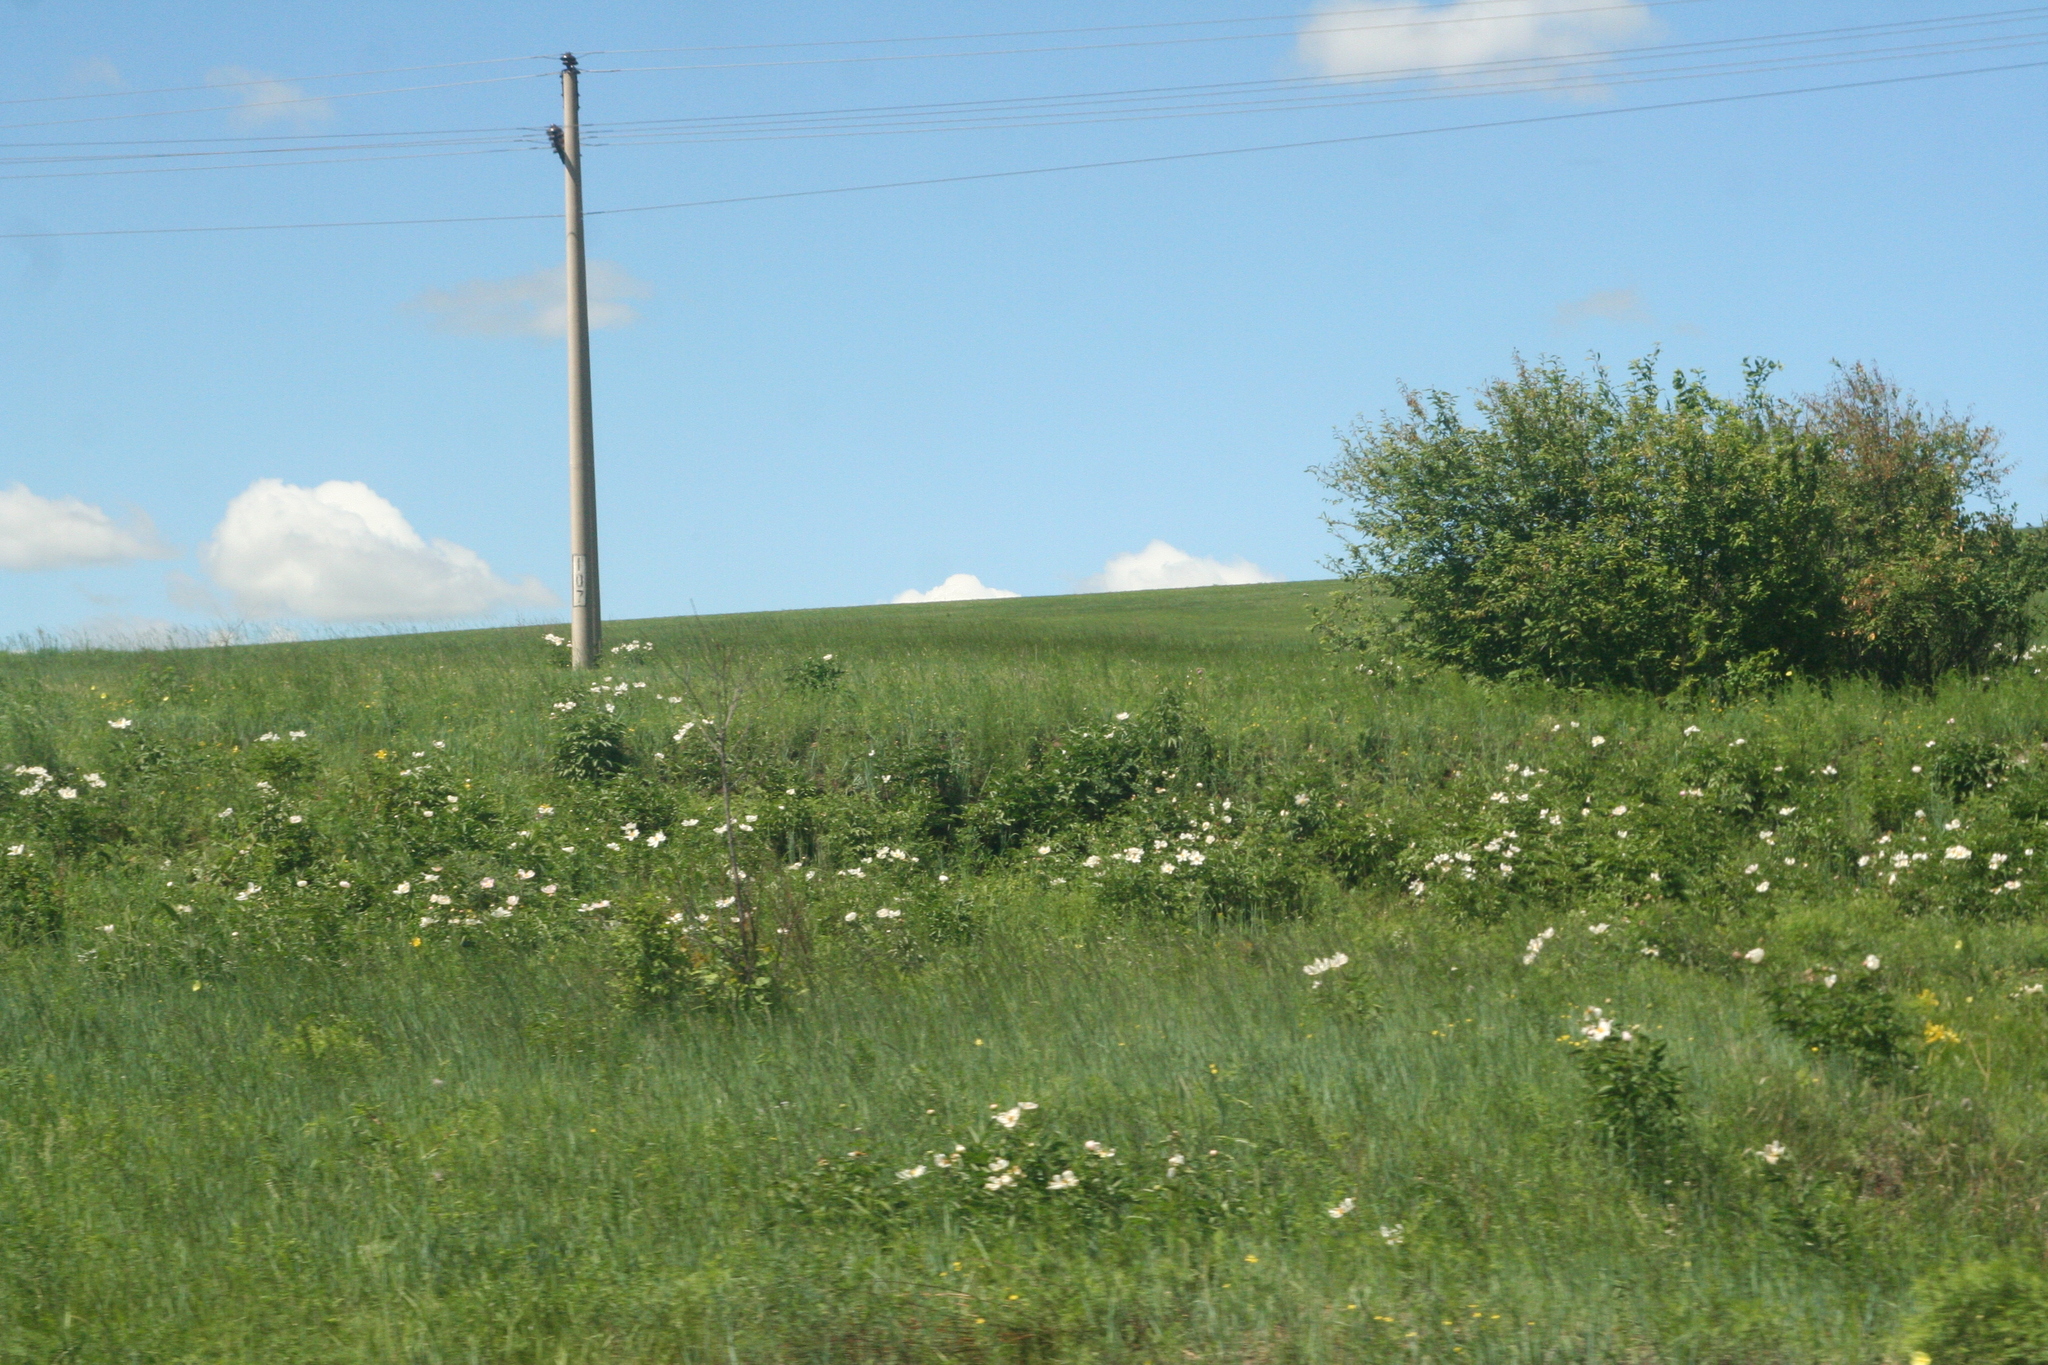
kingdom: Plantae
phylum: Tracheophyta
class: Magnoliopsida
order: Saxifragales
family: Paeoniaceae
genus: Paeonia
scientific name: Paeonia lactiflora
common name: Chinese peony
